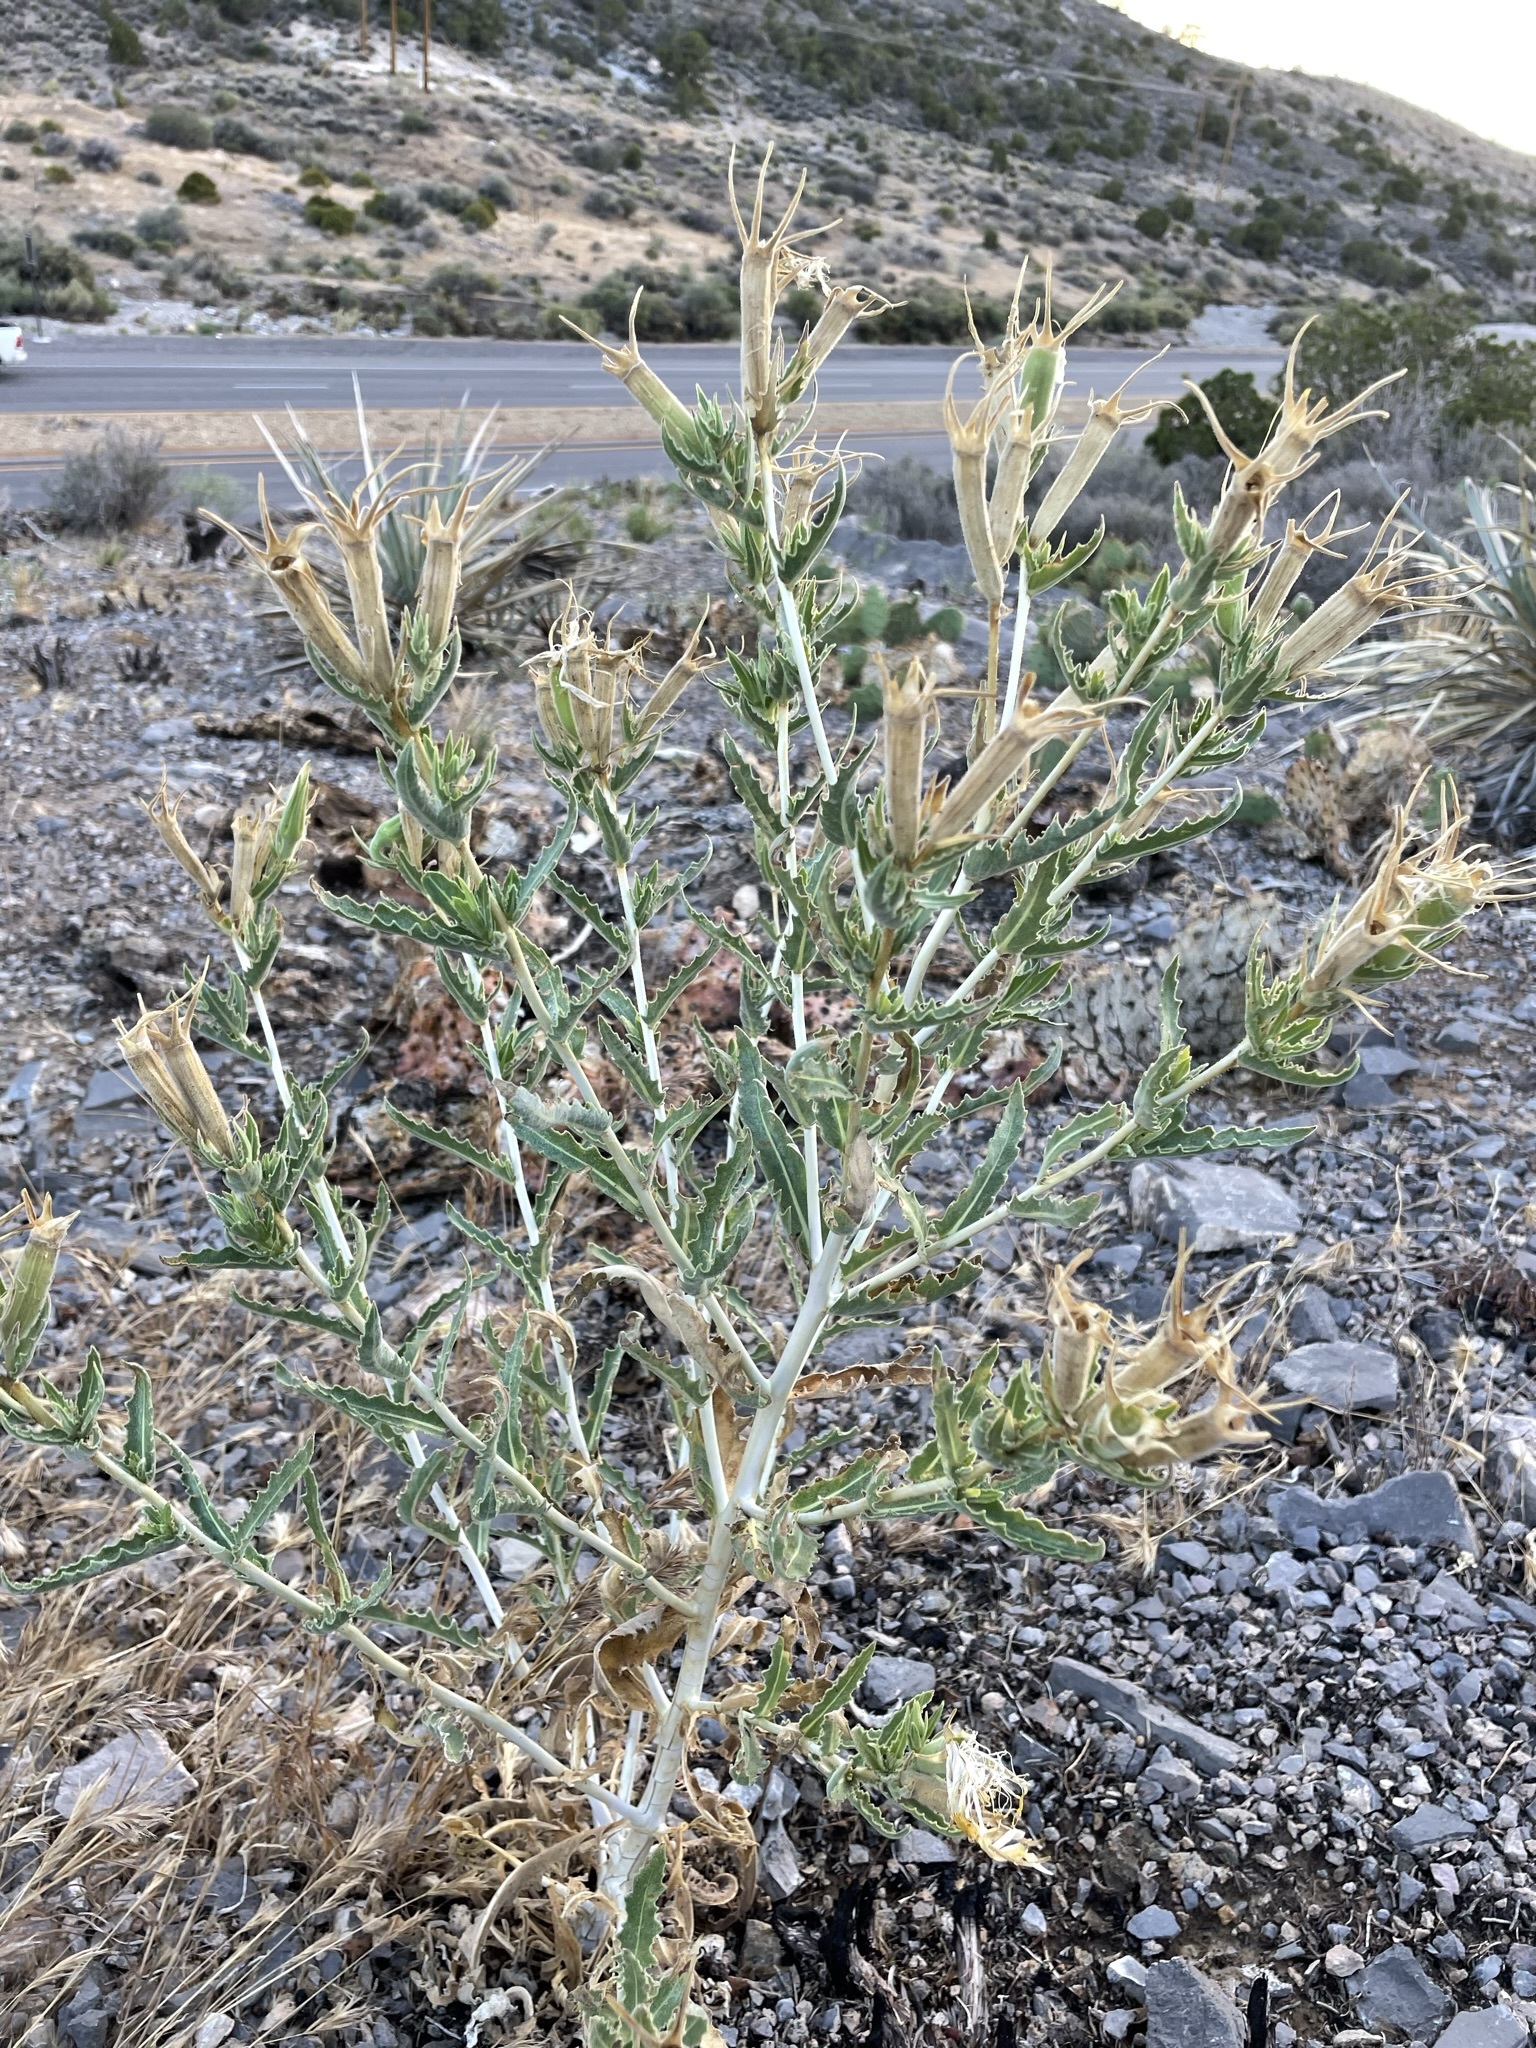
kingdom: Plantae
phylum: Tracheophyta
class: Magnoliopsida
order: Cornales
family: Loasaceae
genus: Mentzelia
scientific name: Mentzelia laevicaulis
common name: Smooth-stem blazingstar
